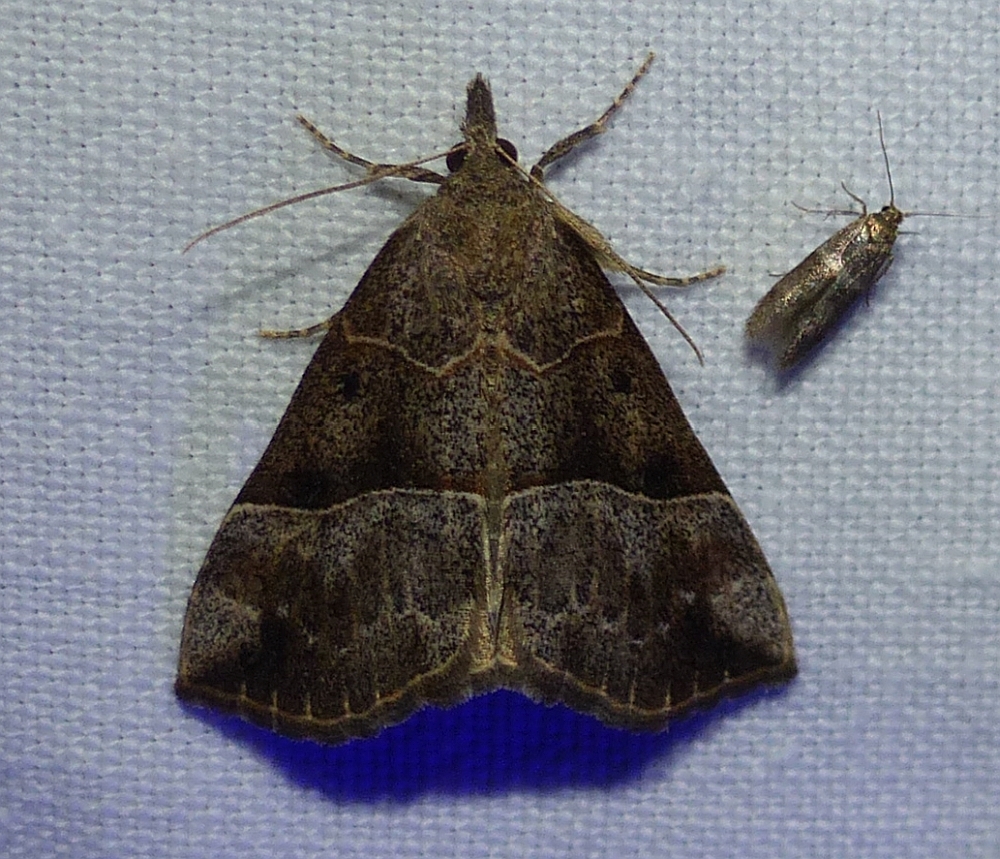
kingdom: Animalia
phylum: Arthropoda
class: Insecta
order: Lepidoptera
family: Erebidae
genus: Hypena
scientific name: Hypena deceptalis
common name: Deceptive snout
